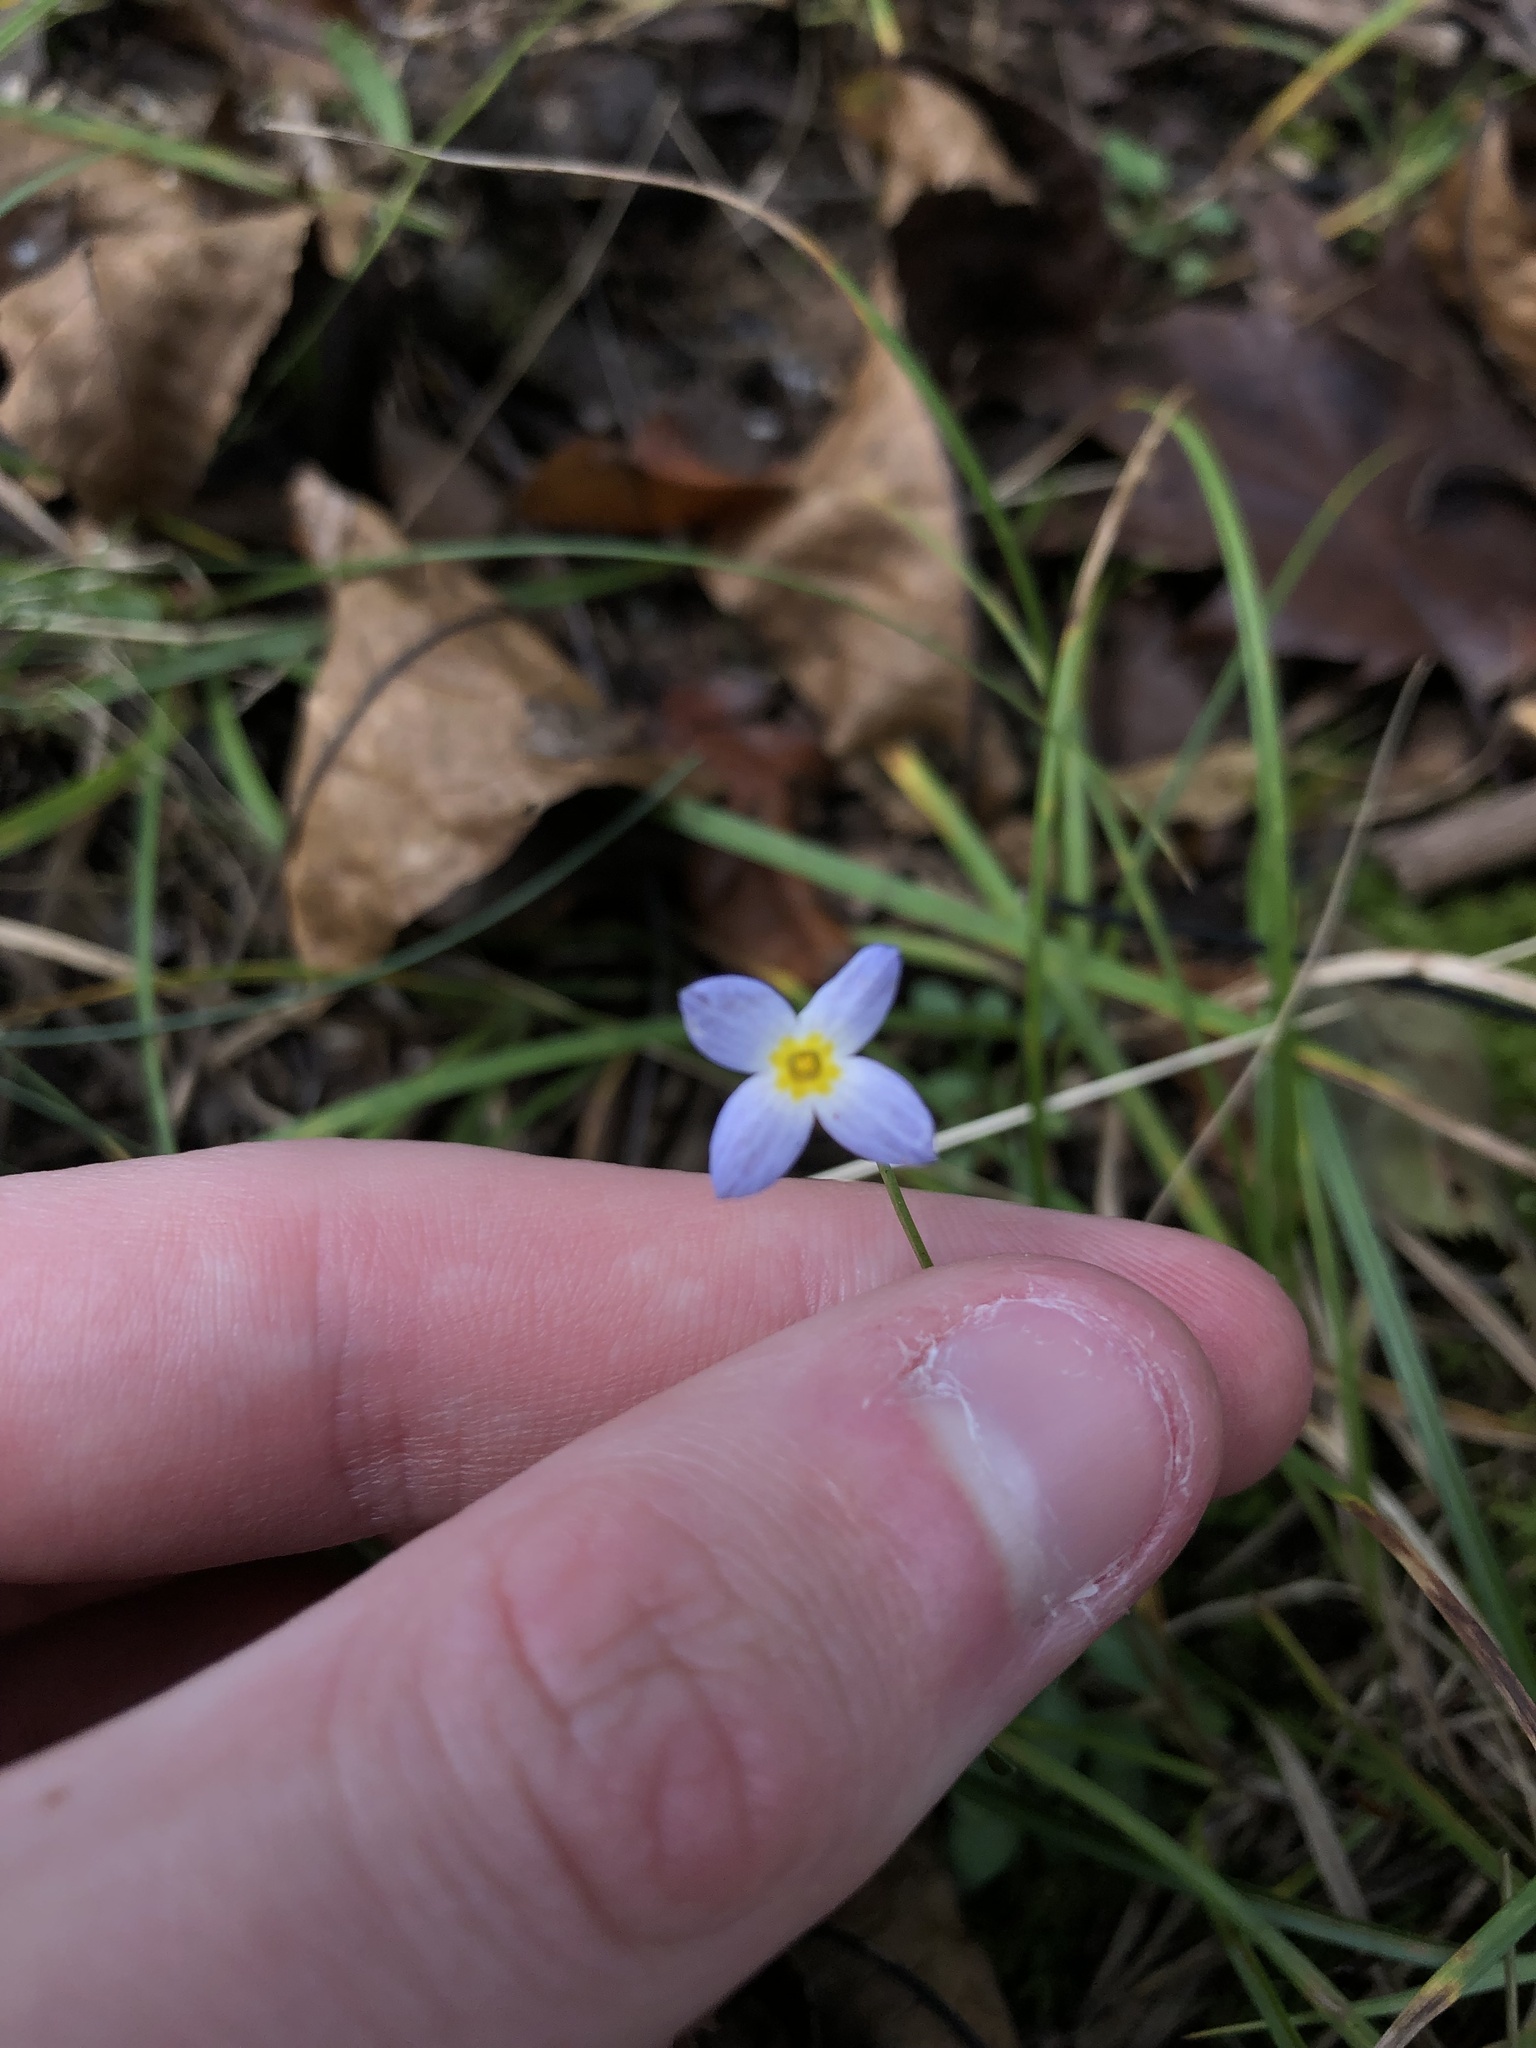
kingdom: Plantae
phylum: Tracheophyta
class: Magnoliopsida
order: Gentianales
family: Rubiaceae
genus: Houstonia
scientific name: Houstonia caerulea
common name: Bluets
